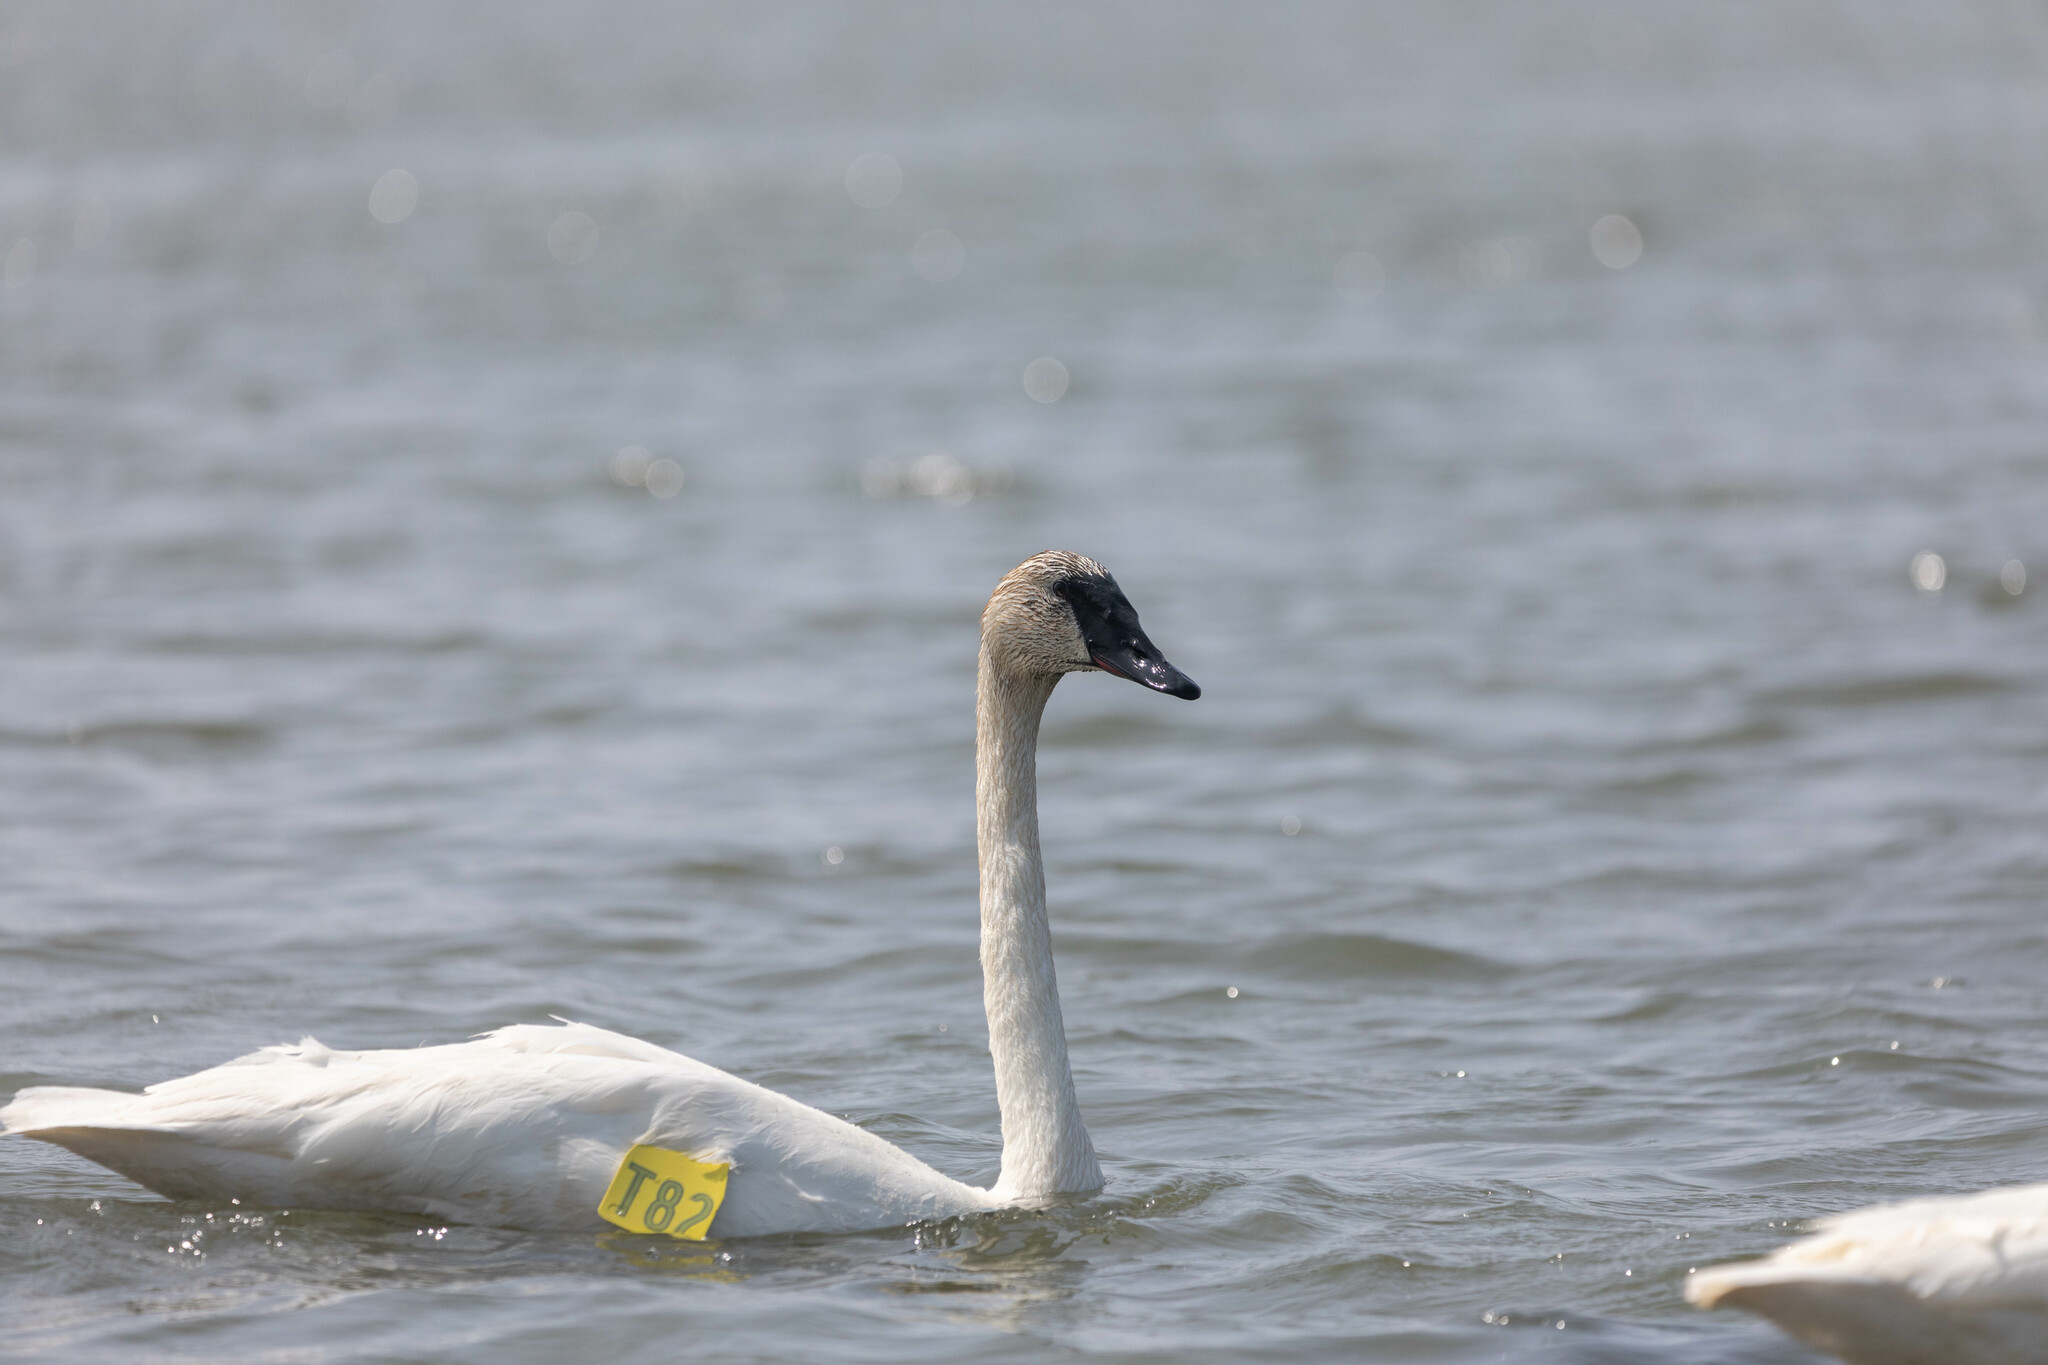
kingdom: Animalia
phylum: Chordata
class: Aves
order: Anseriformes
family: Anatidae
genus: Cygnus
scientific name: Cygnus buccinator
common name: Trumpeter swan
